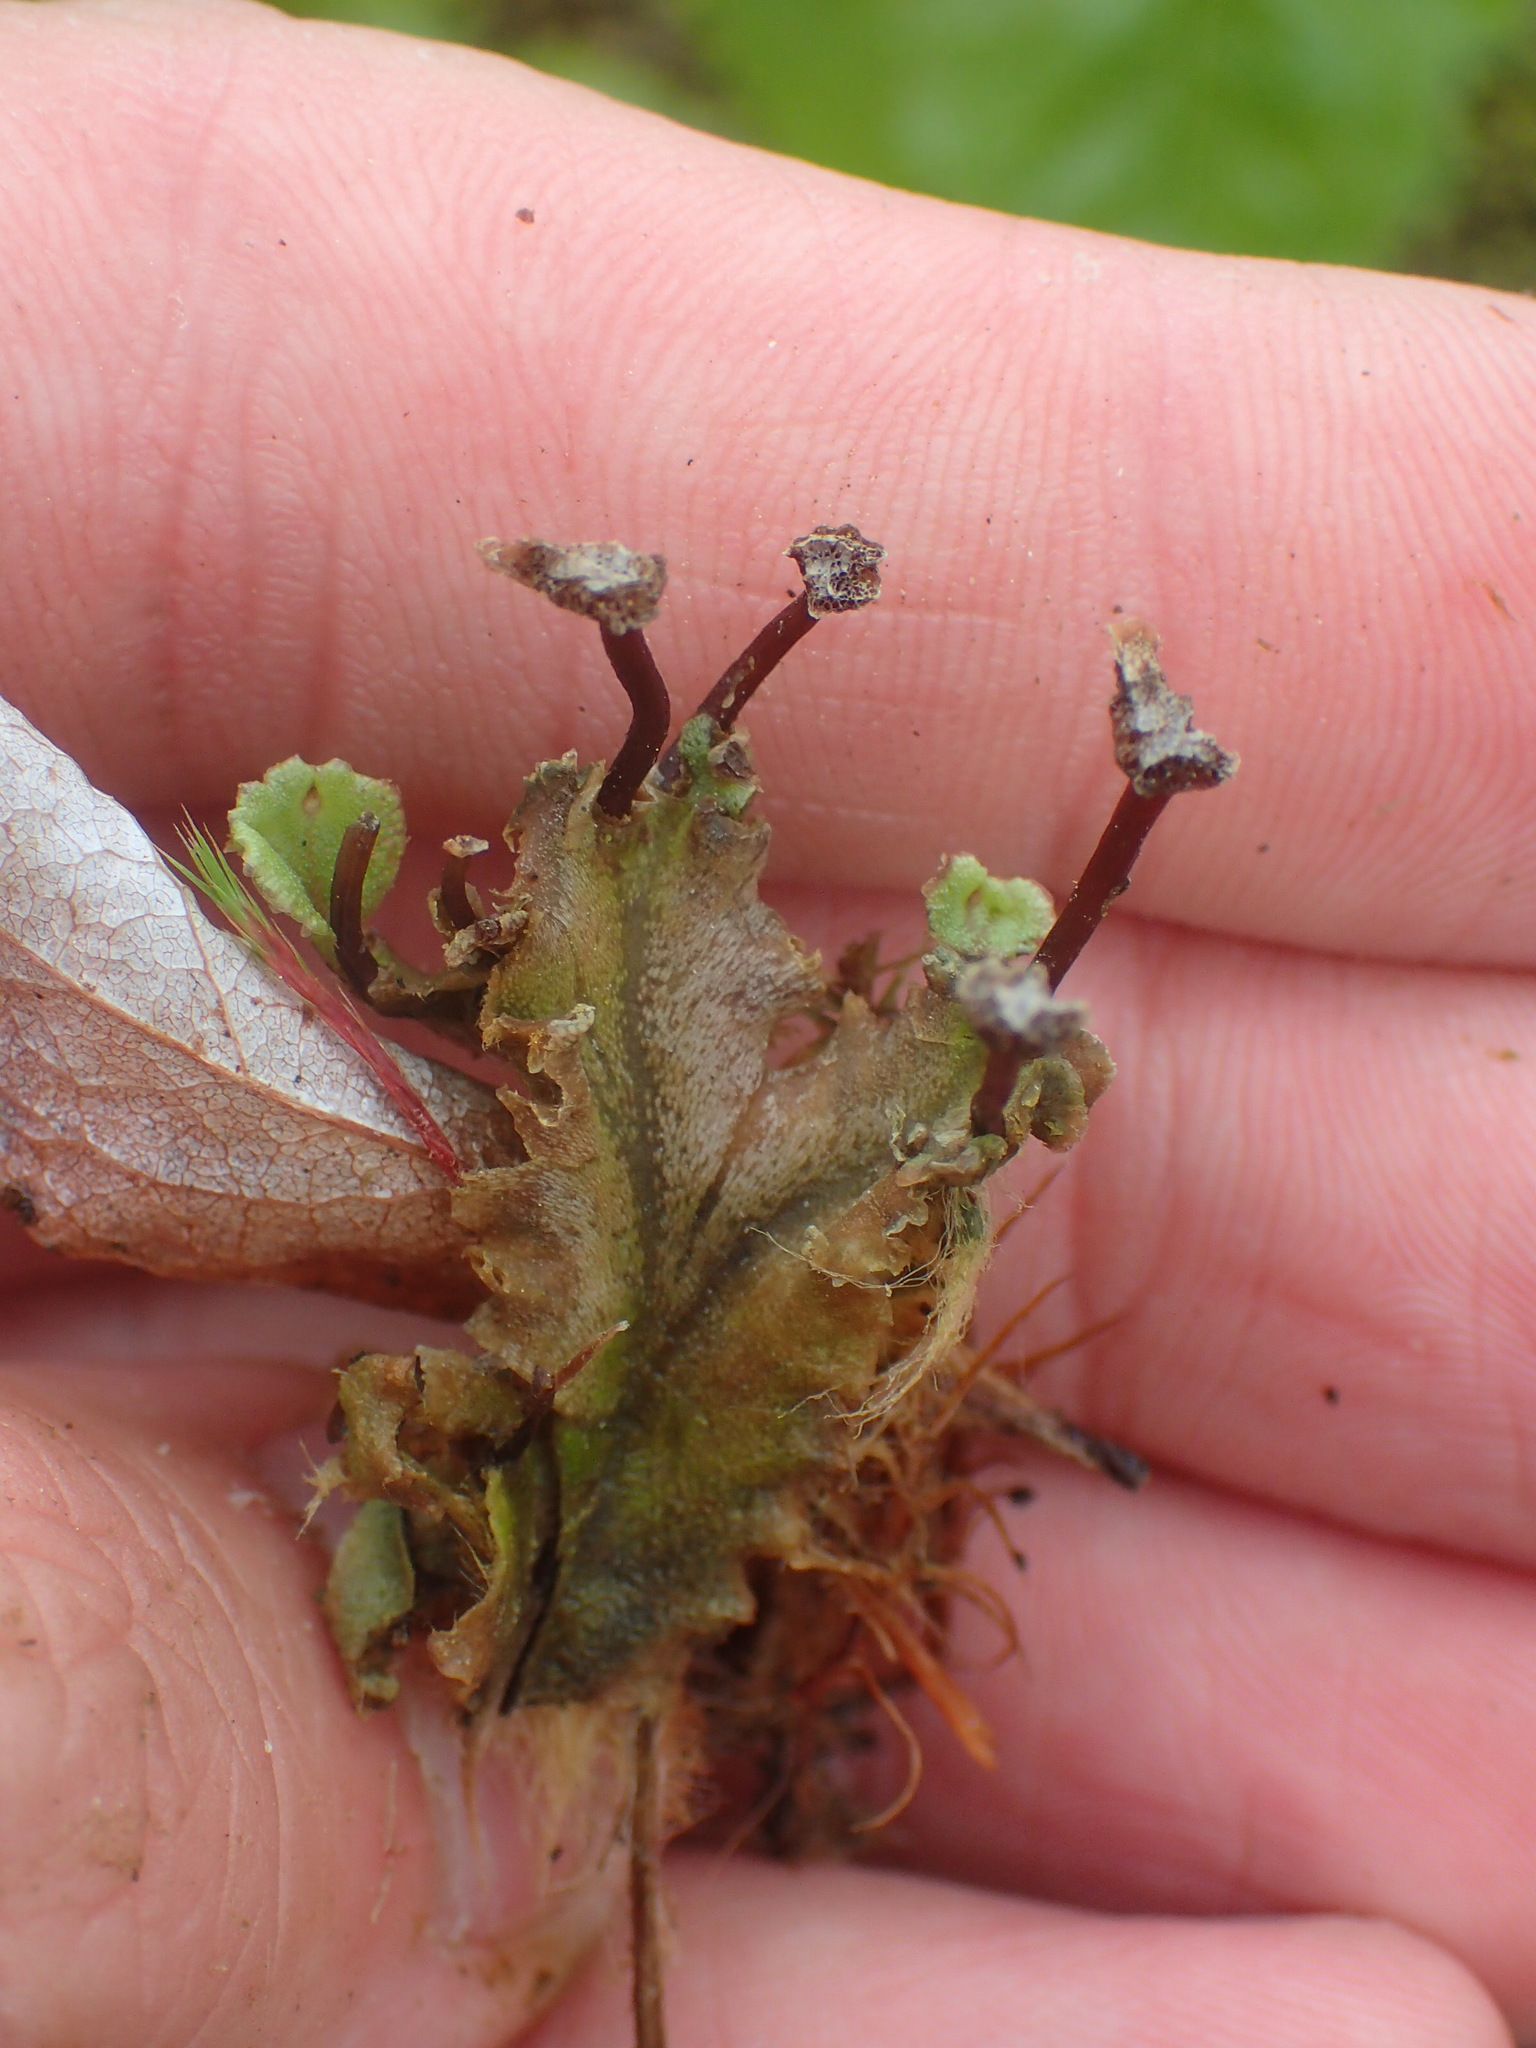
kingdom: Plantae
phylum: Marchantiophyta
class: Marchantiopsida
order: Marchantiales
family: Marchantiaceae
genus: Marchantia
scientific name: Marchantia polymorpha
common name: Common liverwort
